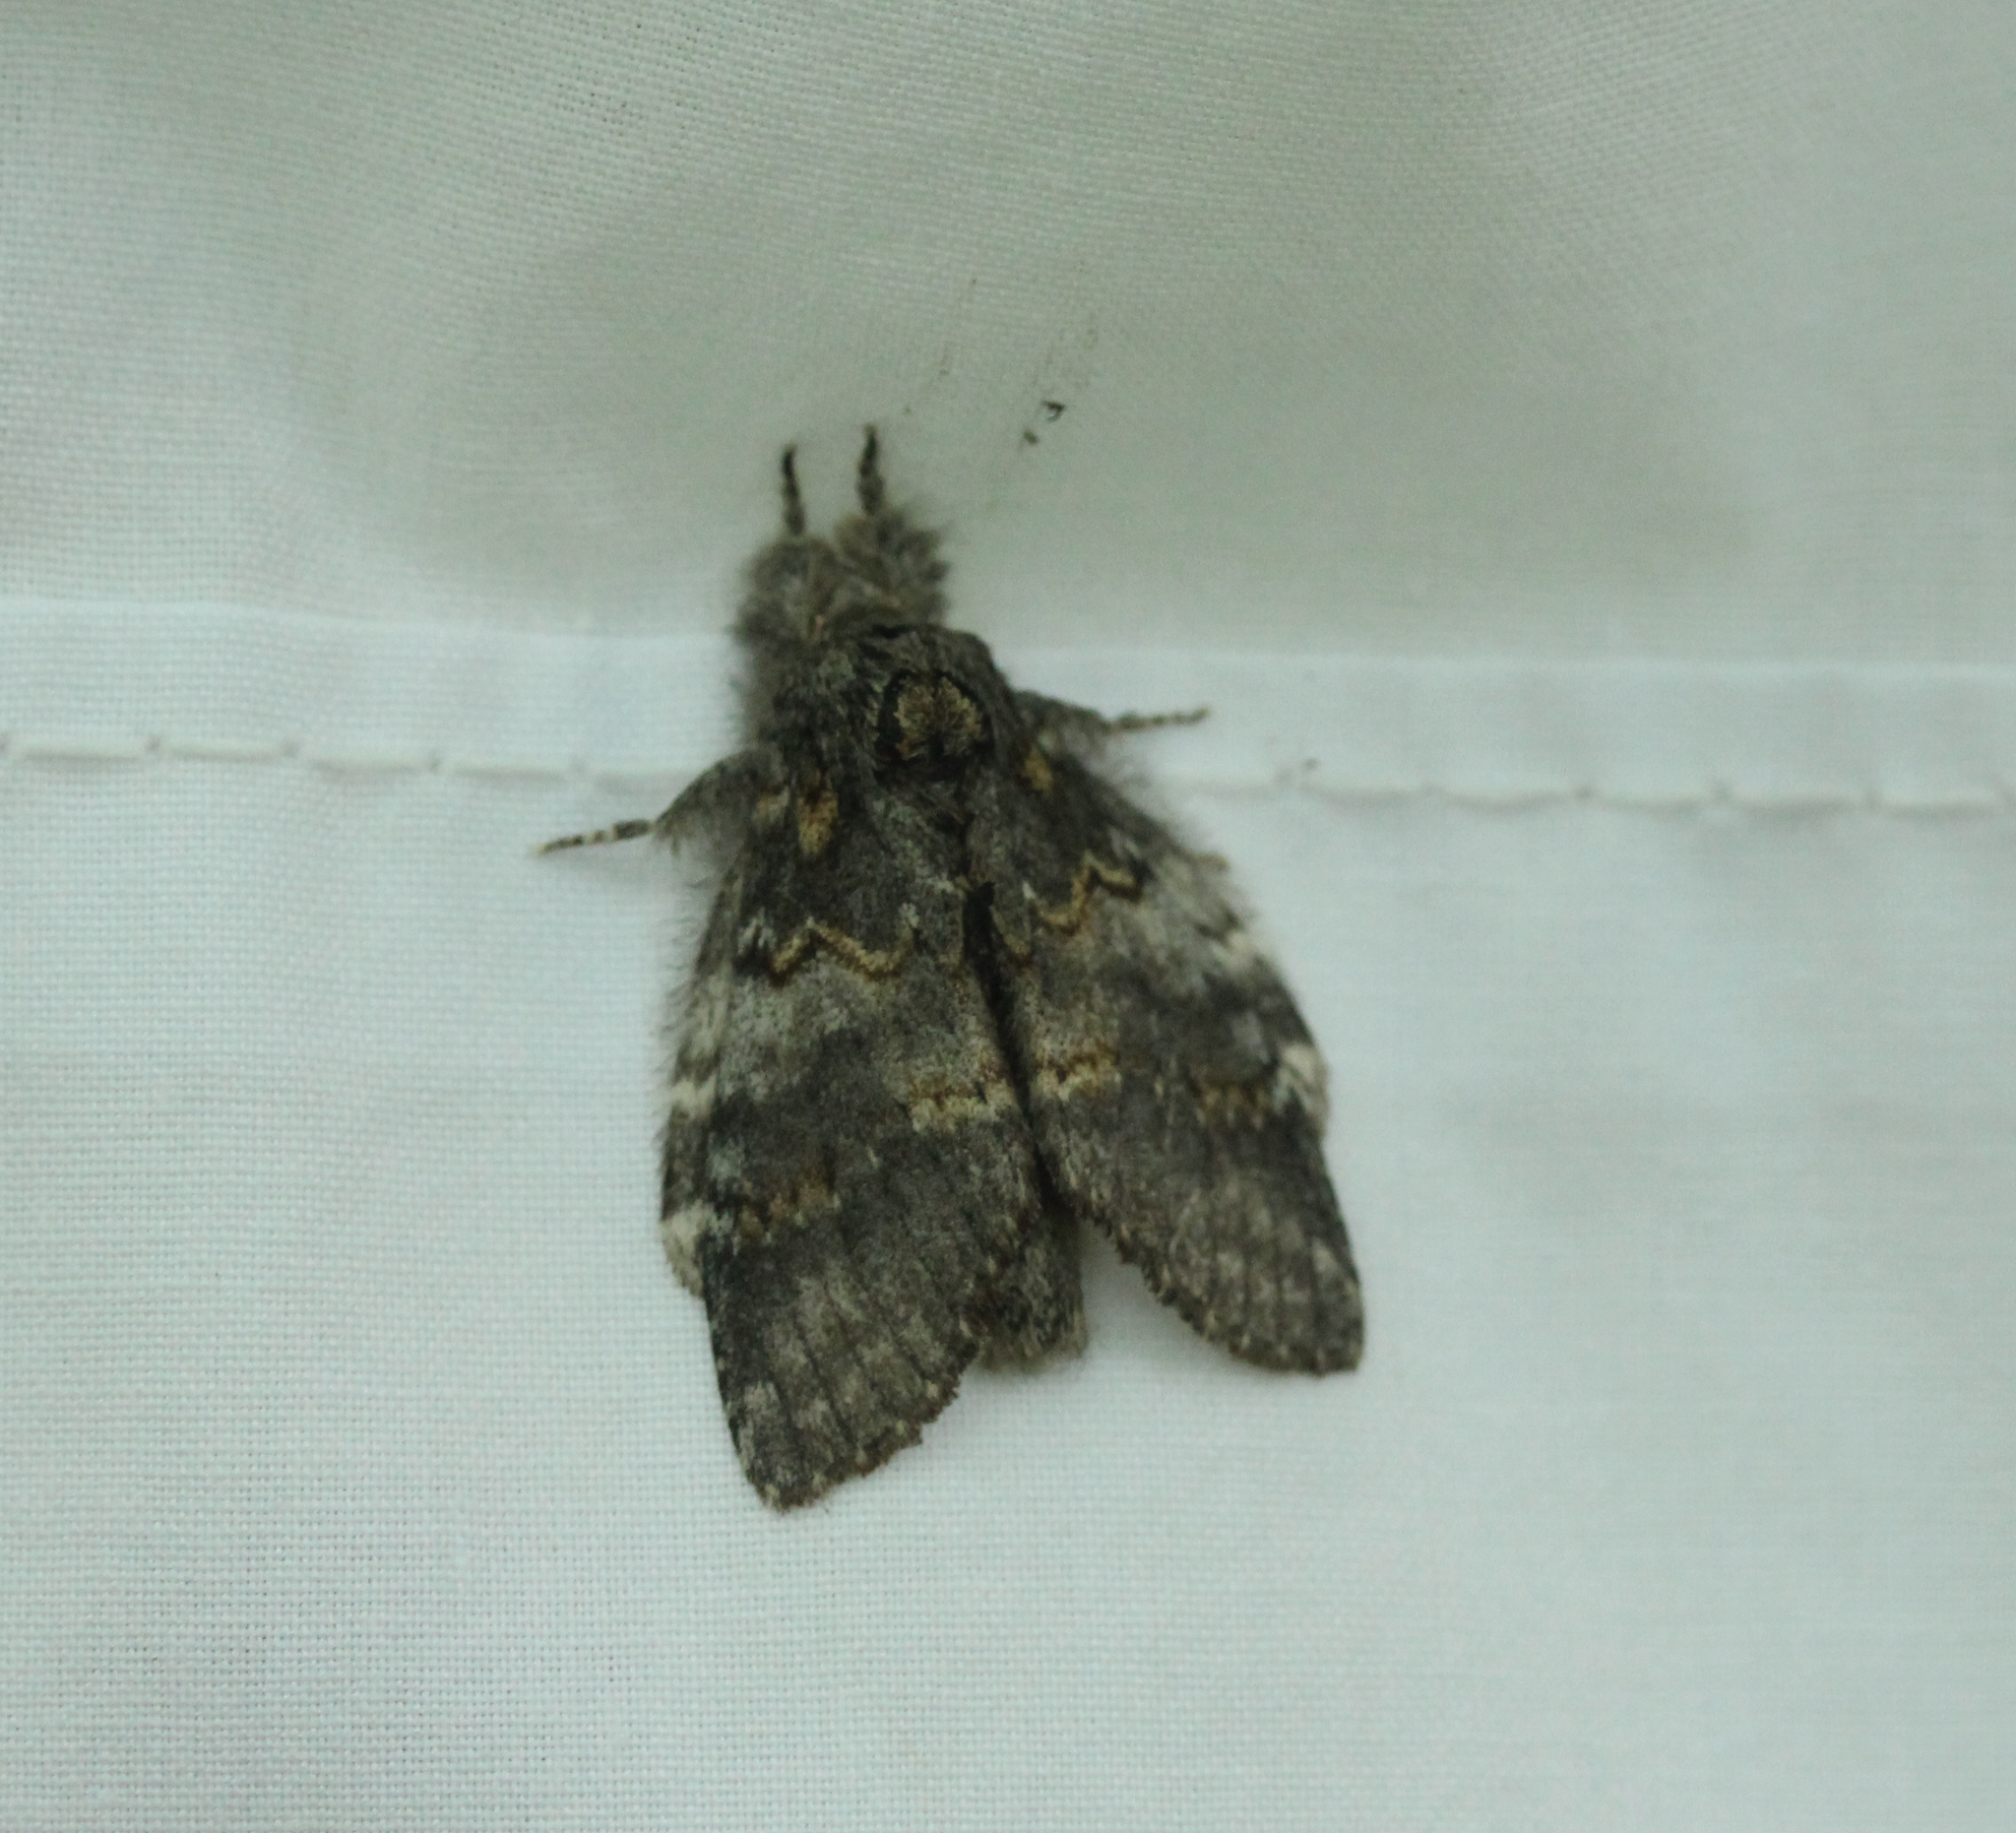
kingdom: Animalia
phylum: Arthropoda
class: Insecta
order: Lepidoptera
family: Notodontidae
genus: Peridea
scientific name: Peridea angulosa
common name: Angulose prominent
